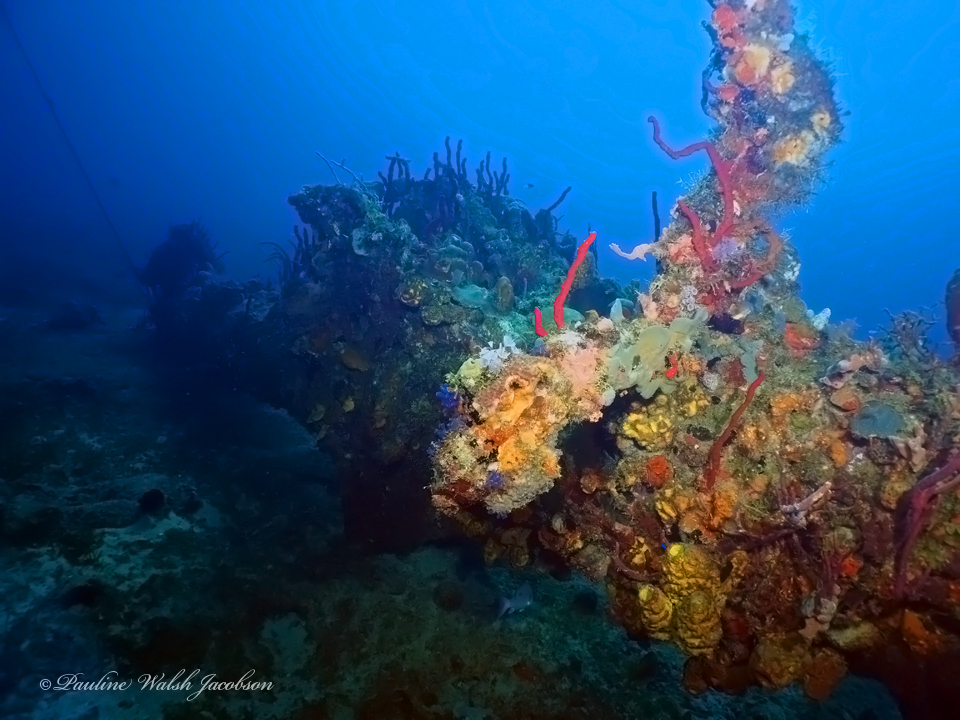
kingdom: Animalia
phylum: Porifera
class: Demospongiae
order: Haplosclerida
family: Niphatidae
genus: Amphimedon
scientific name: Amphimedon compressa
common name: Red sponge
